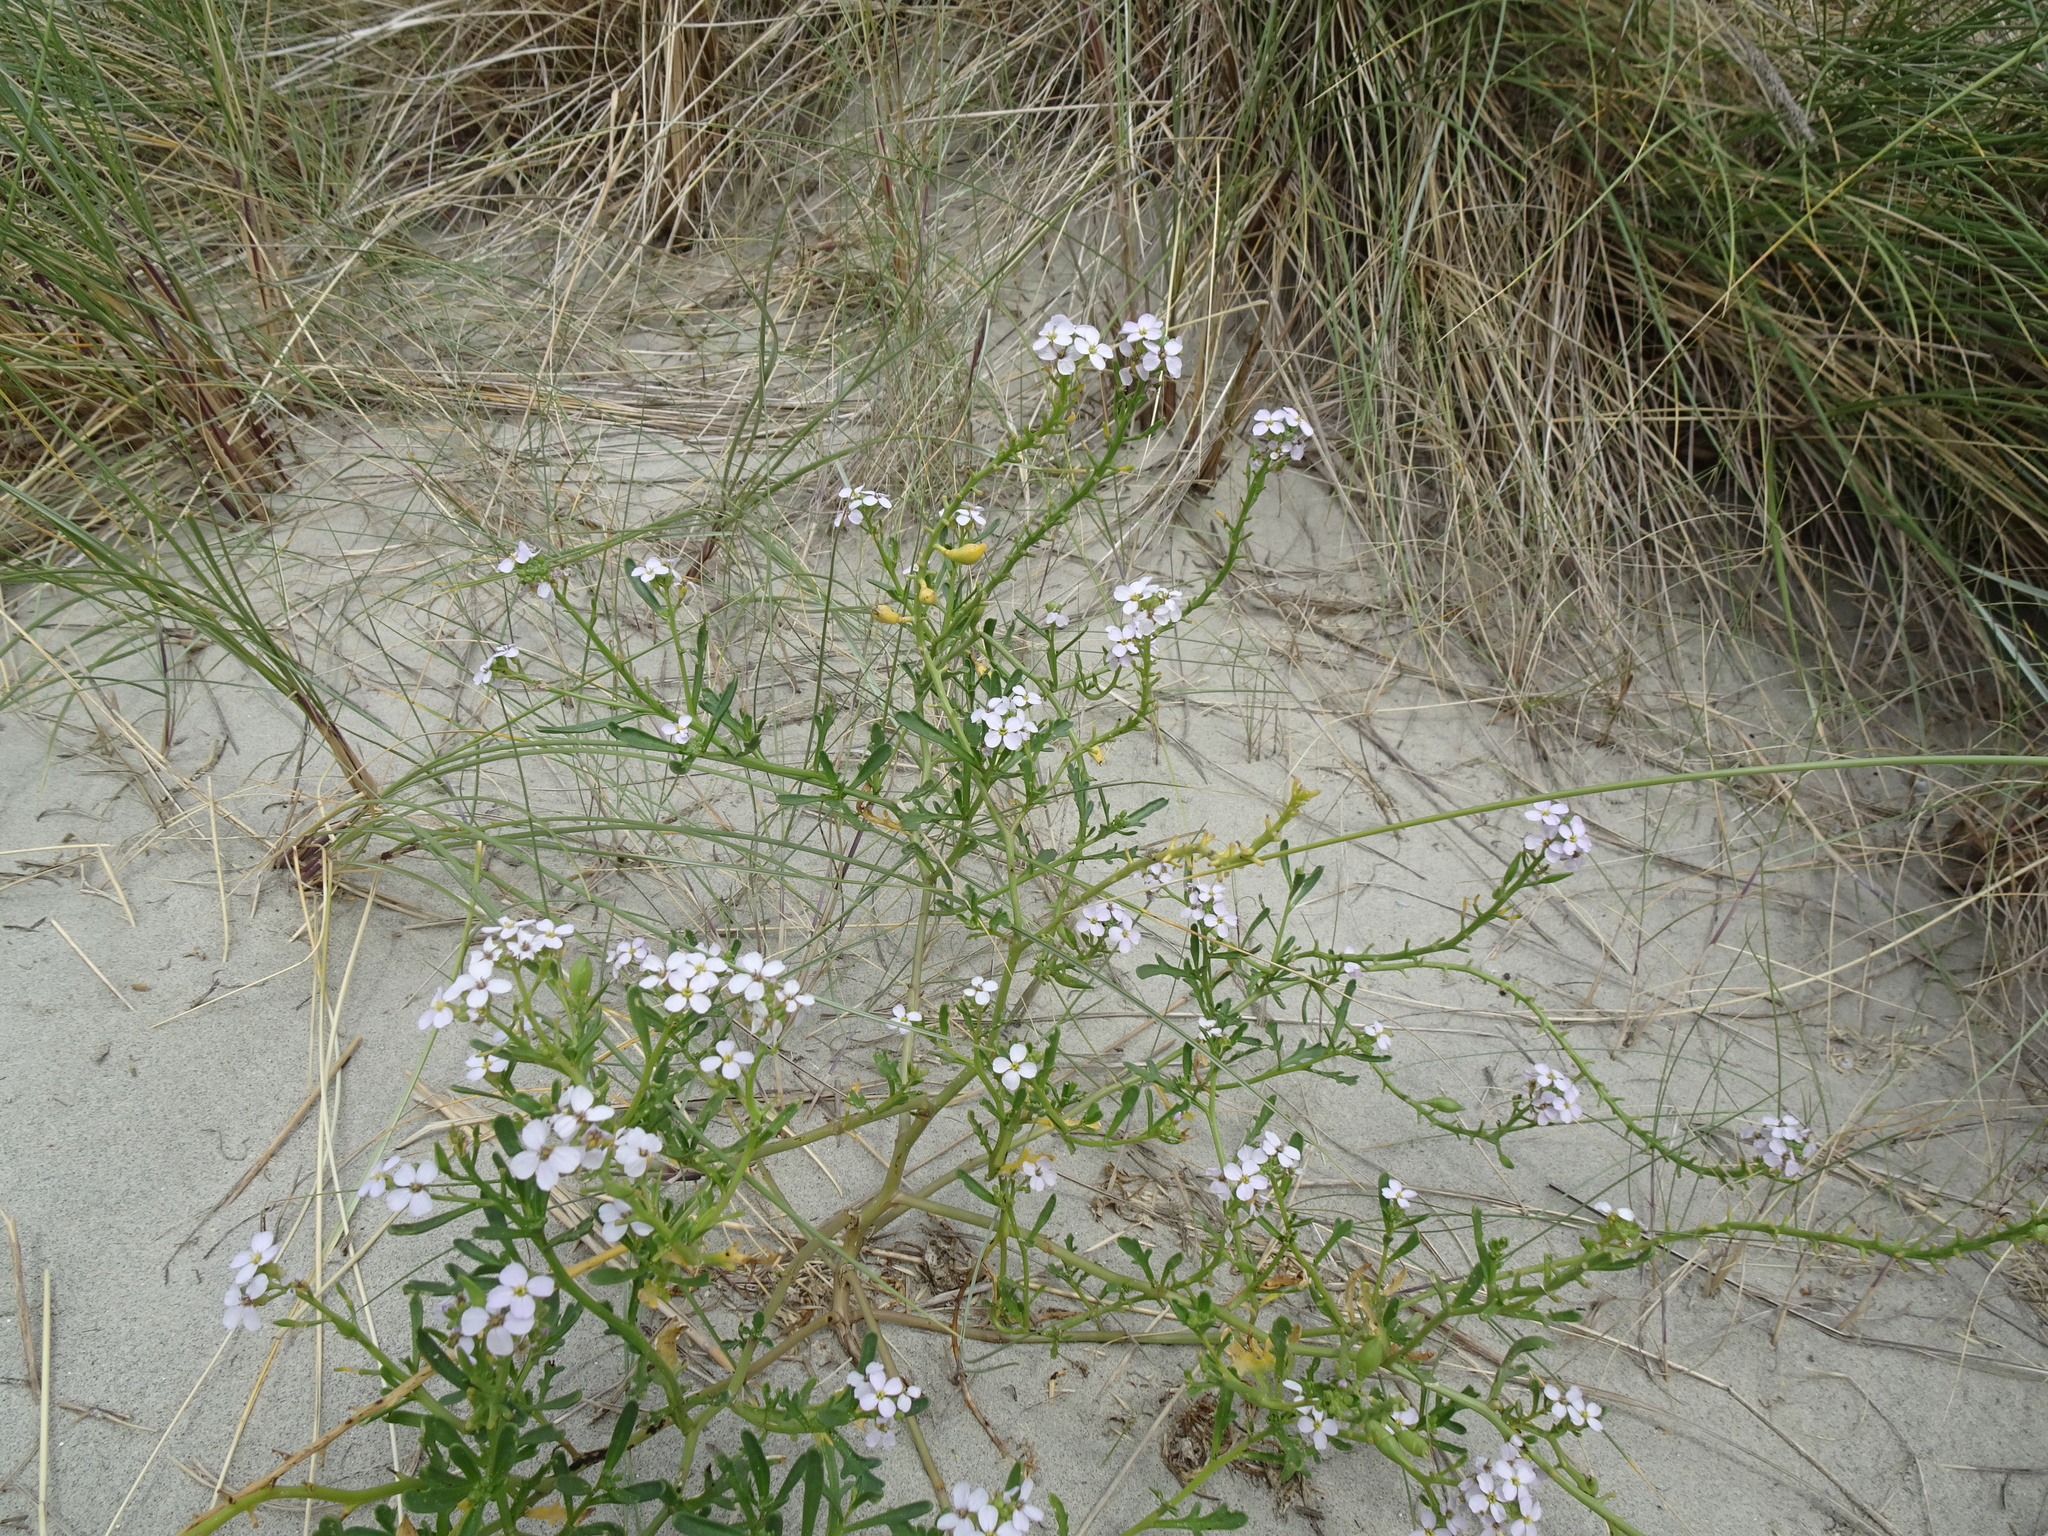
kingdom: Plantae
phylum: Tracheophyta
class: Magnoliopsida
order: Brassicales
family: Brassicaceae
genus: Cakile
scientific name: Cakile maritima
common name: Sea rocket
